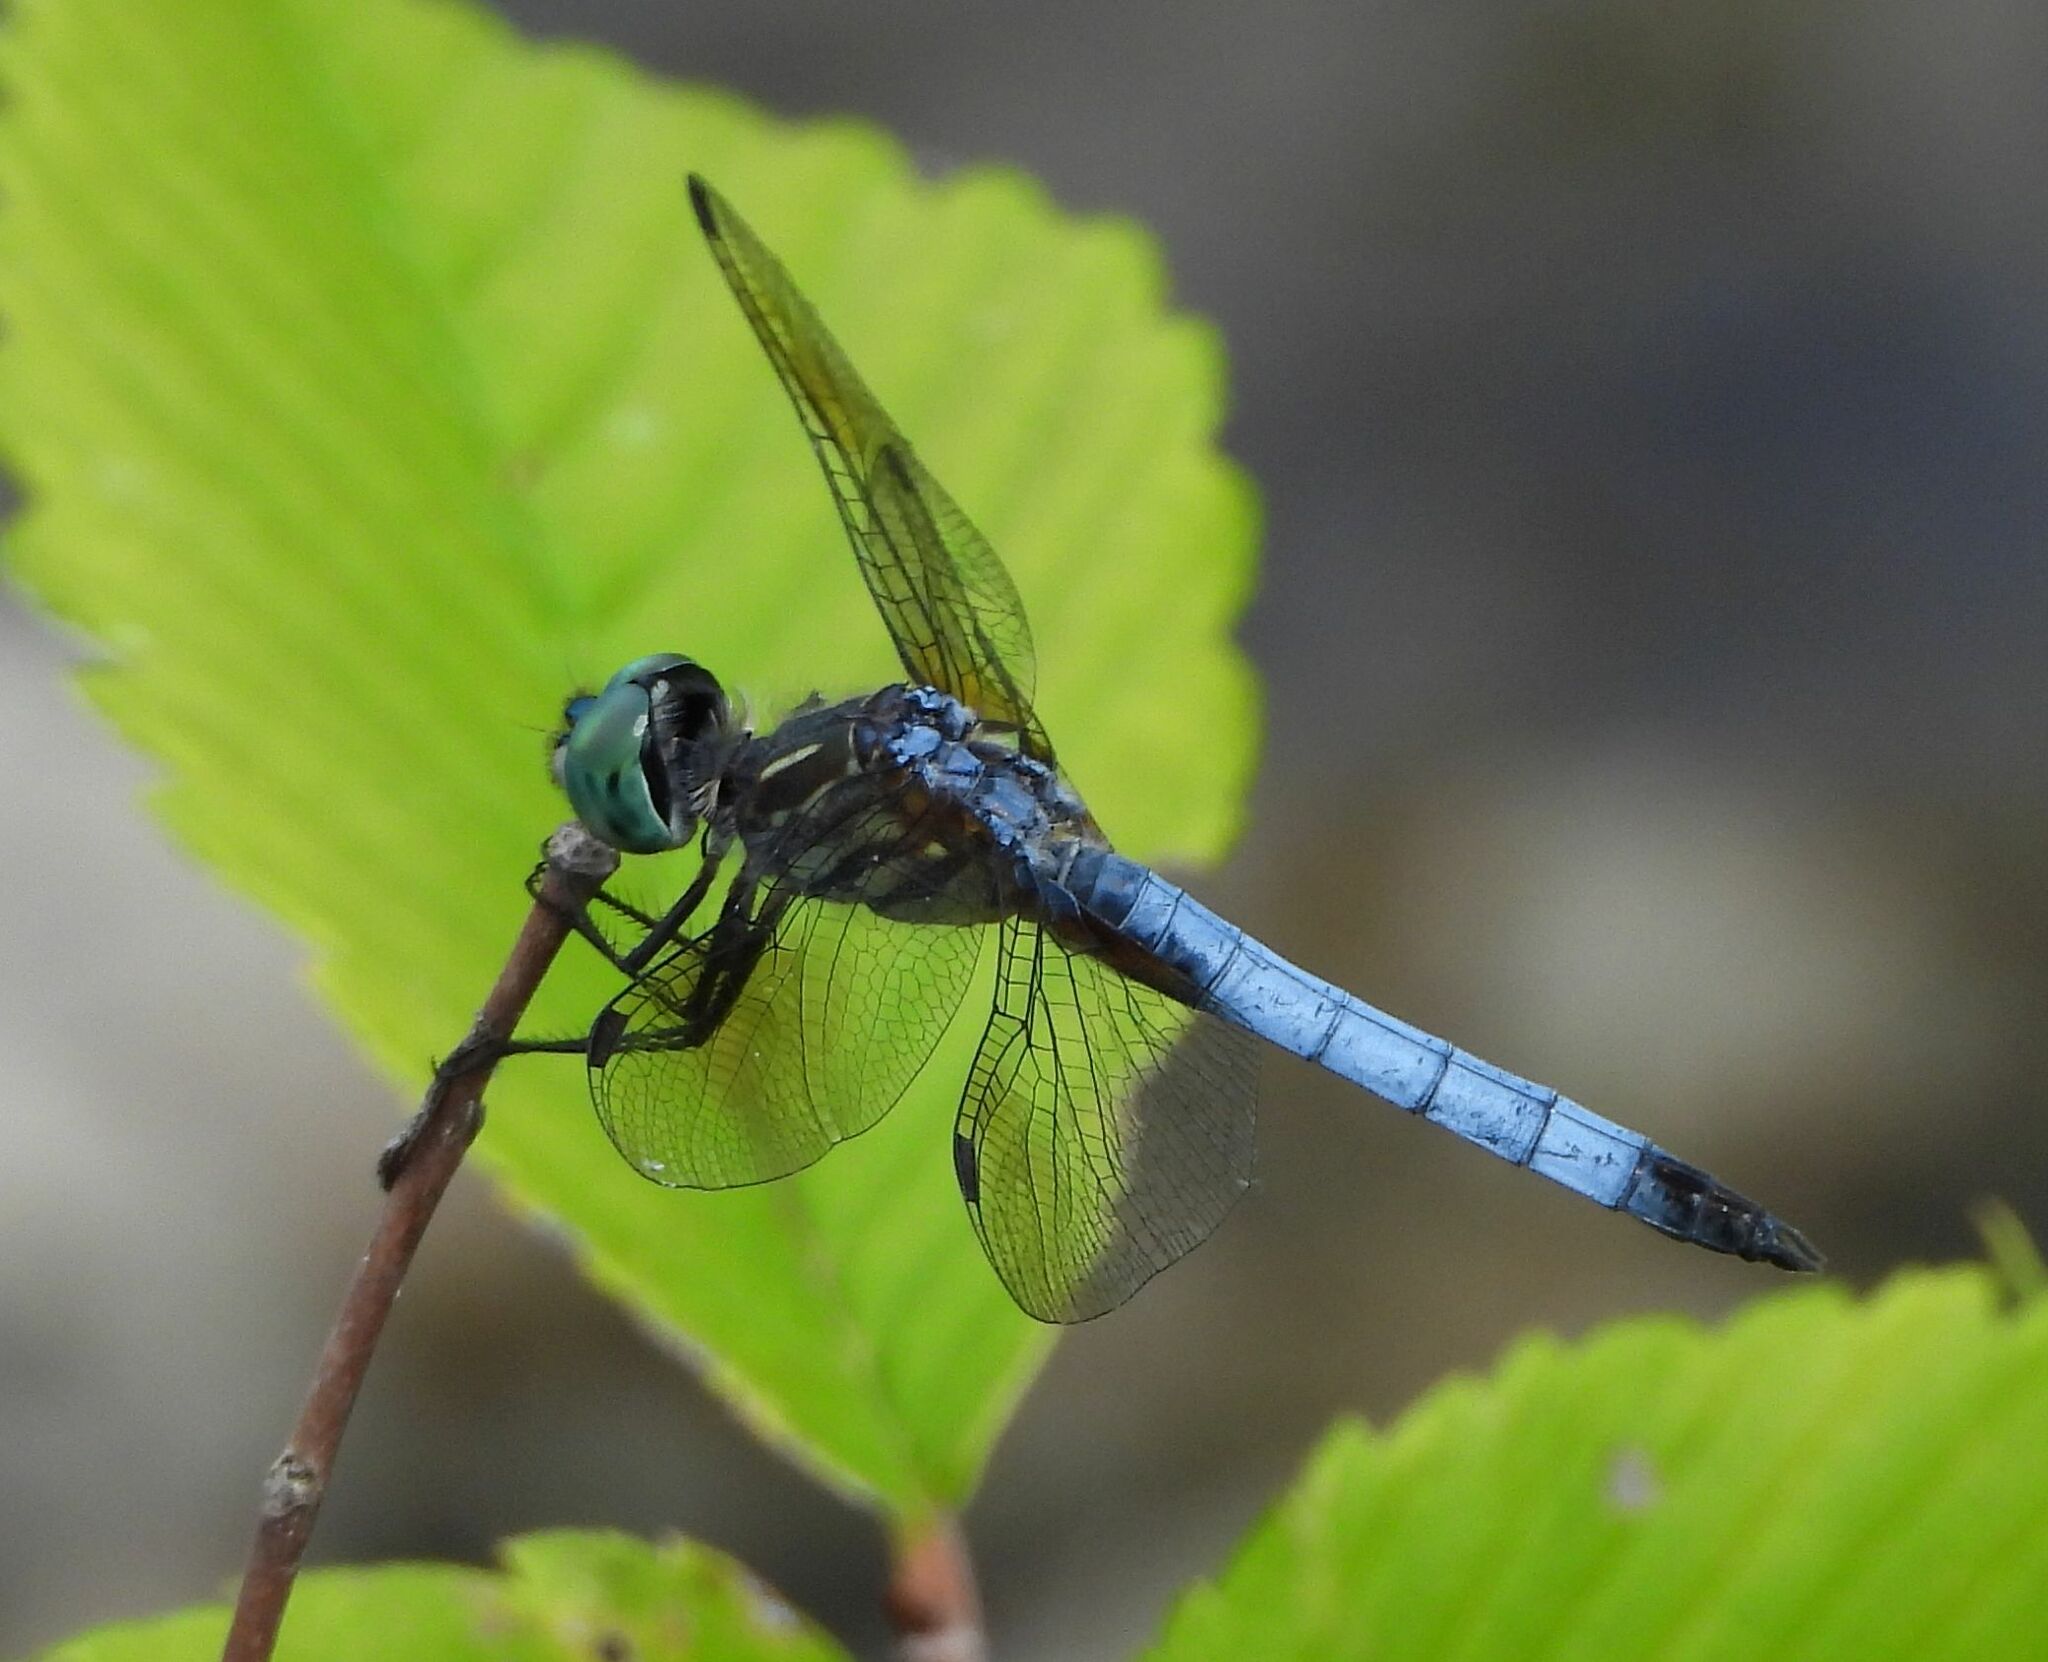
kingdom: Animalia
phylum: Arthropoda
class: Insecta
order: Odonata
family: Libellulidae
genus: Pachydiplax
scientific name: Pachydiplax longipennis
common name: Blue dasher
